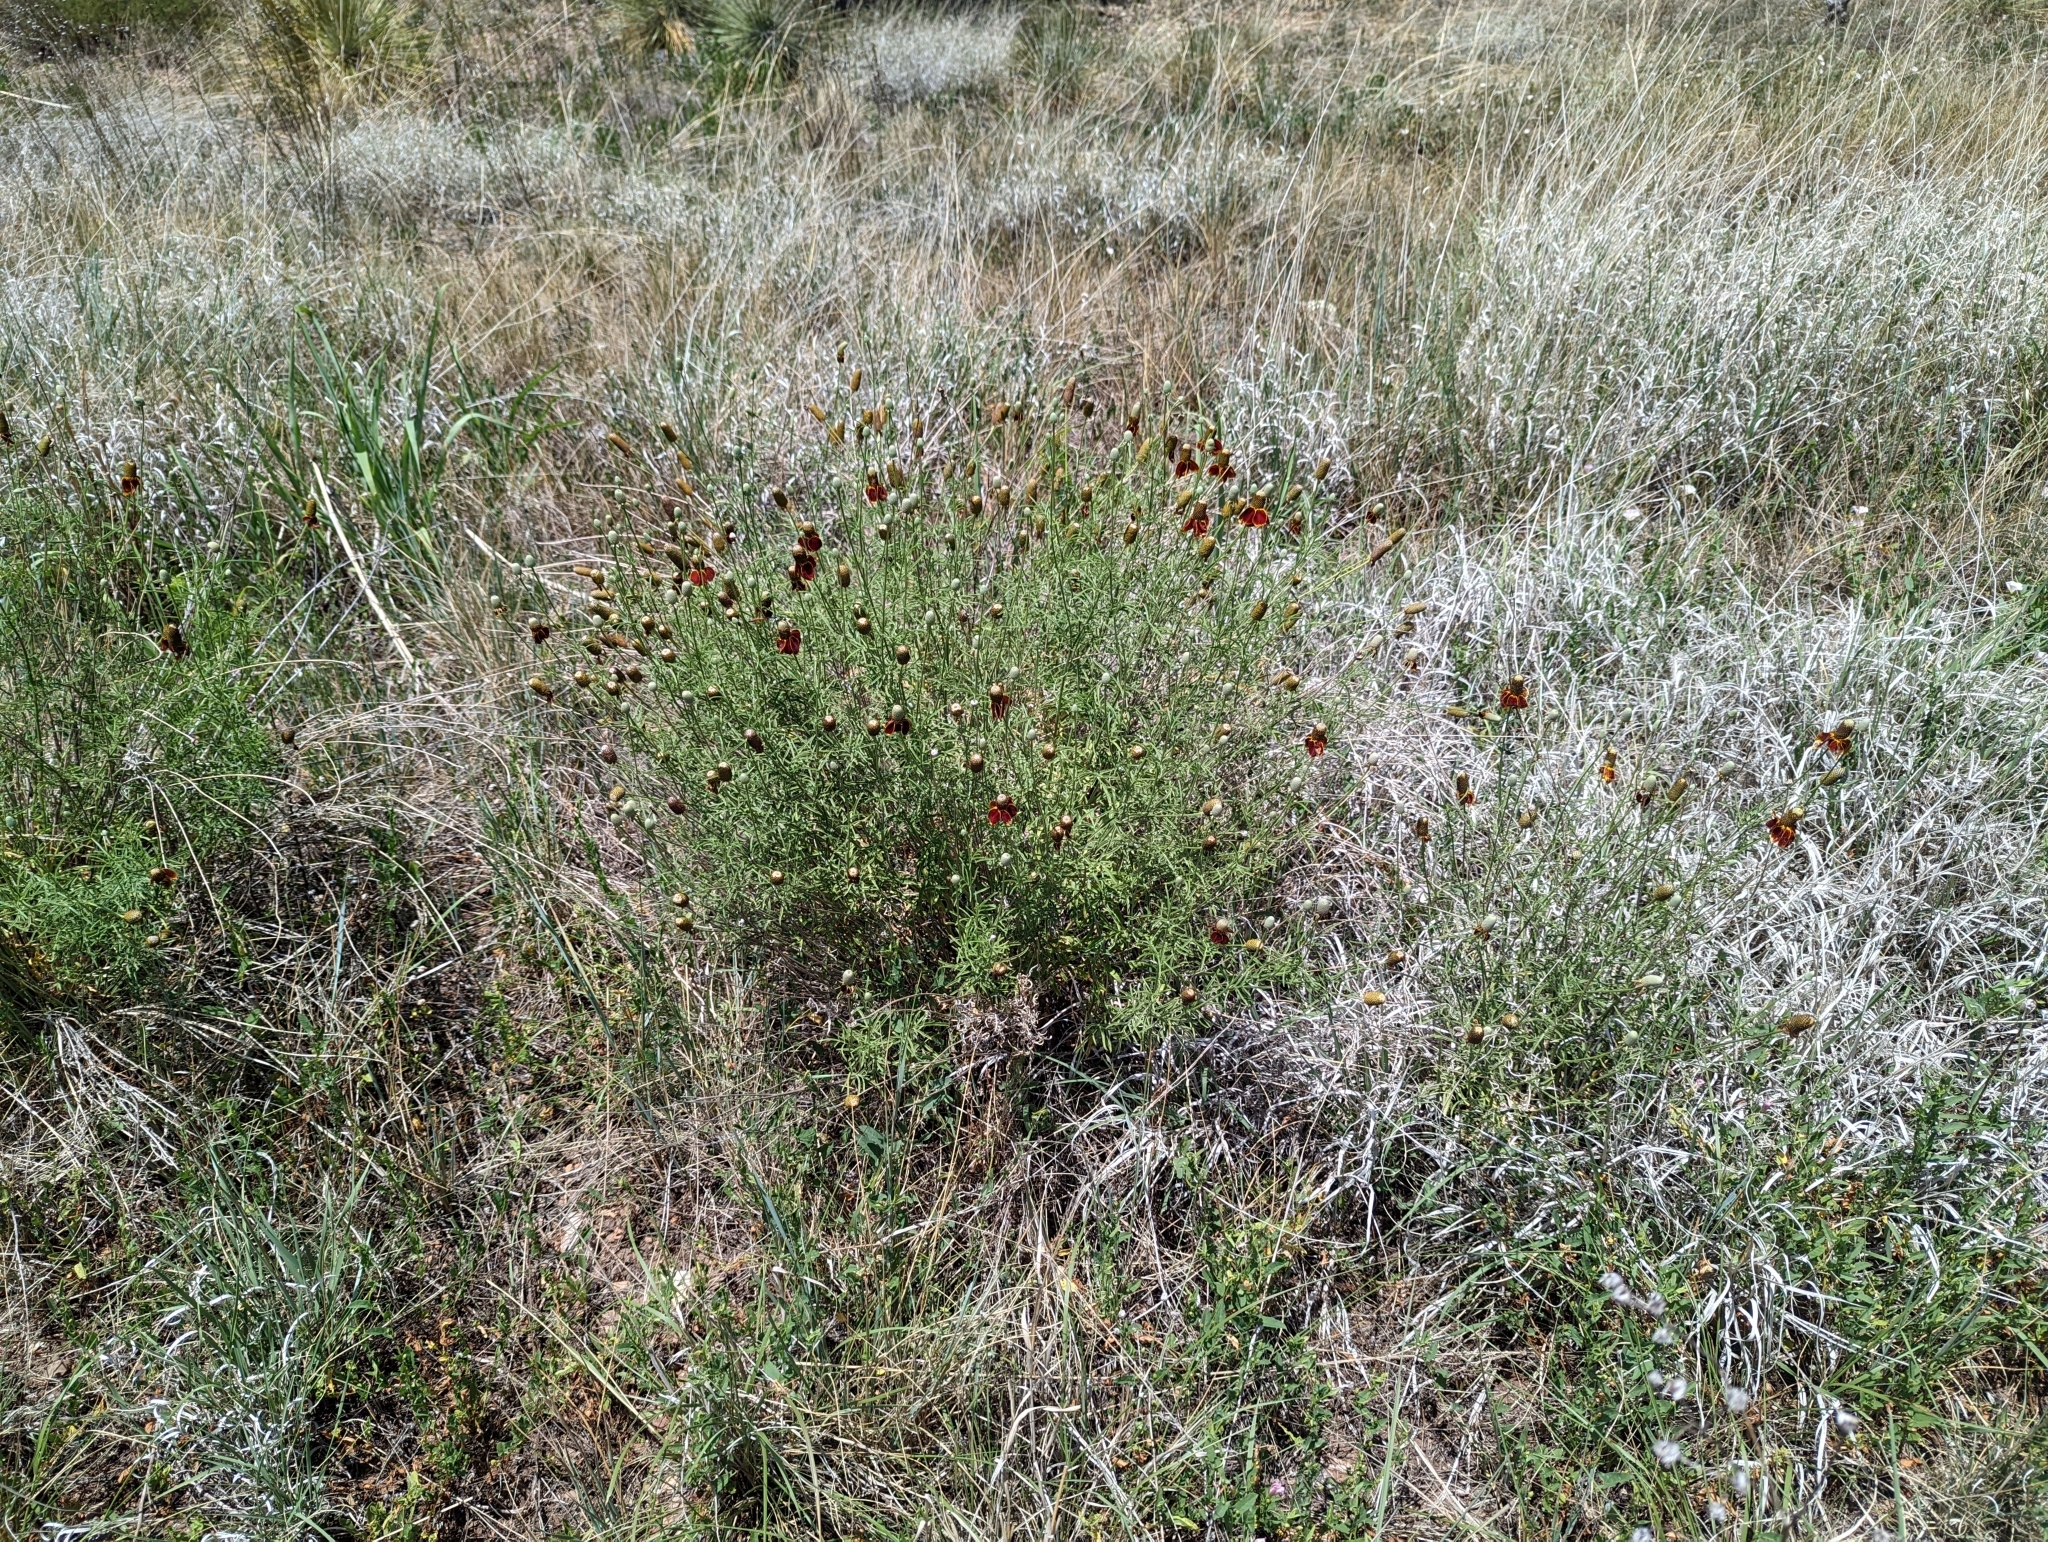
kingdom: Plantae
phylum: Tracheophyta
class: Magnoliopsida
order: Asterales
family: Asteraceae
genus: Ratibida
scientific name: Ratibida columnifera
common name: Prairie coneflower
